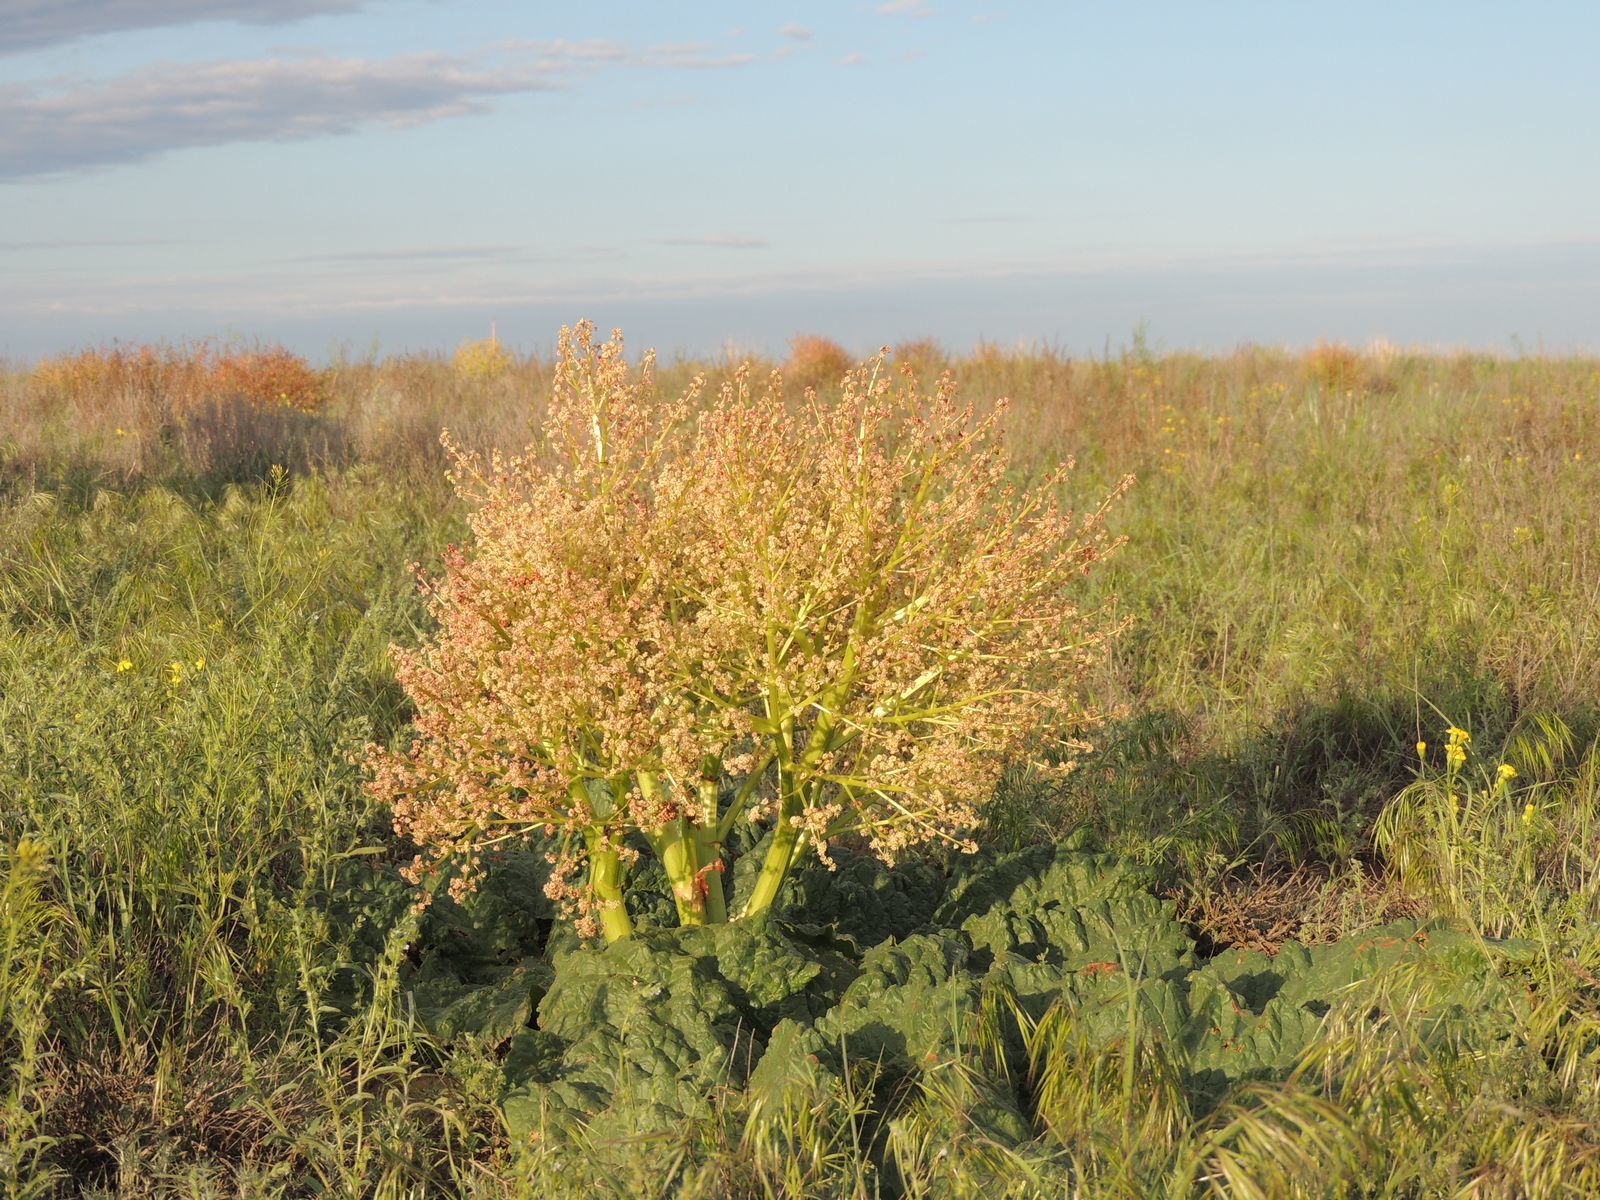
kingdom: Plantae
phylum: Tracheophyta
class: Magnoliopsida
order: Caryophyllales
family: Polygonaceae
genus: Rheum
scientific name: Rheum tataricum
